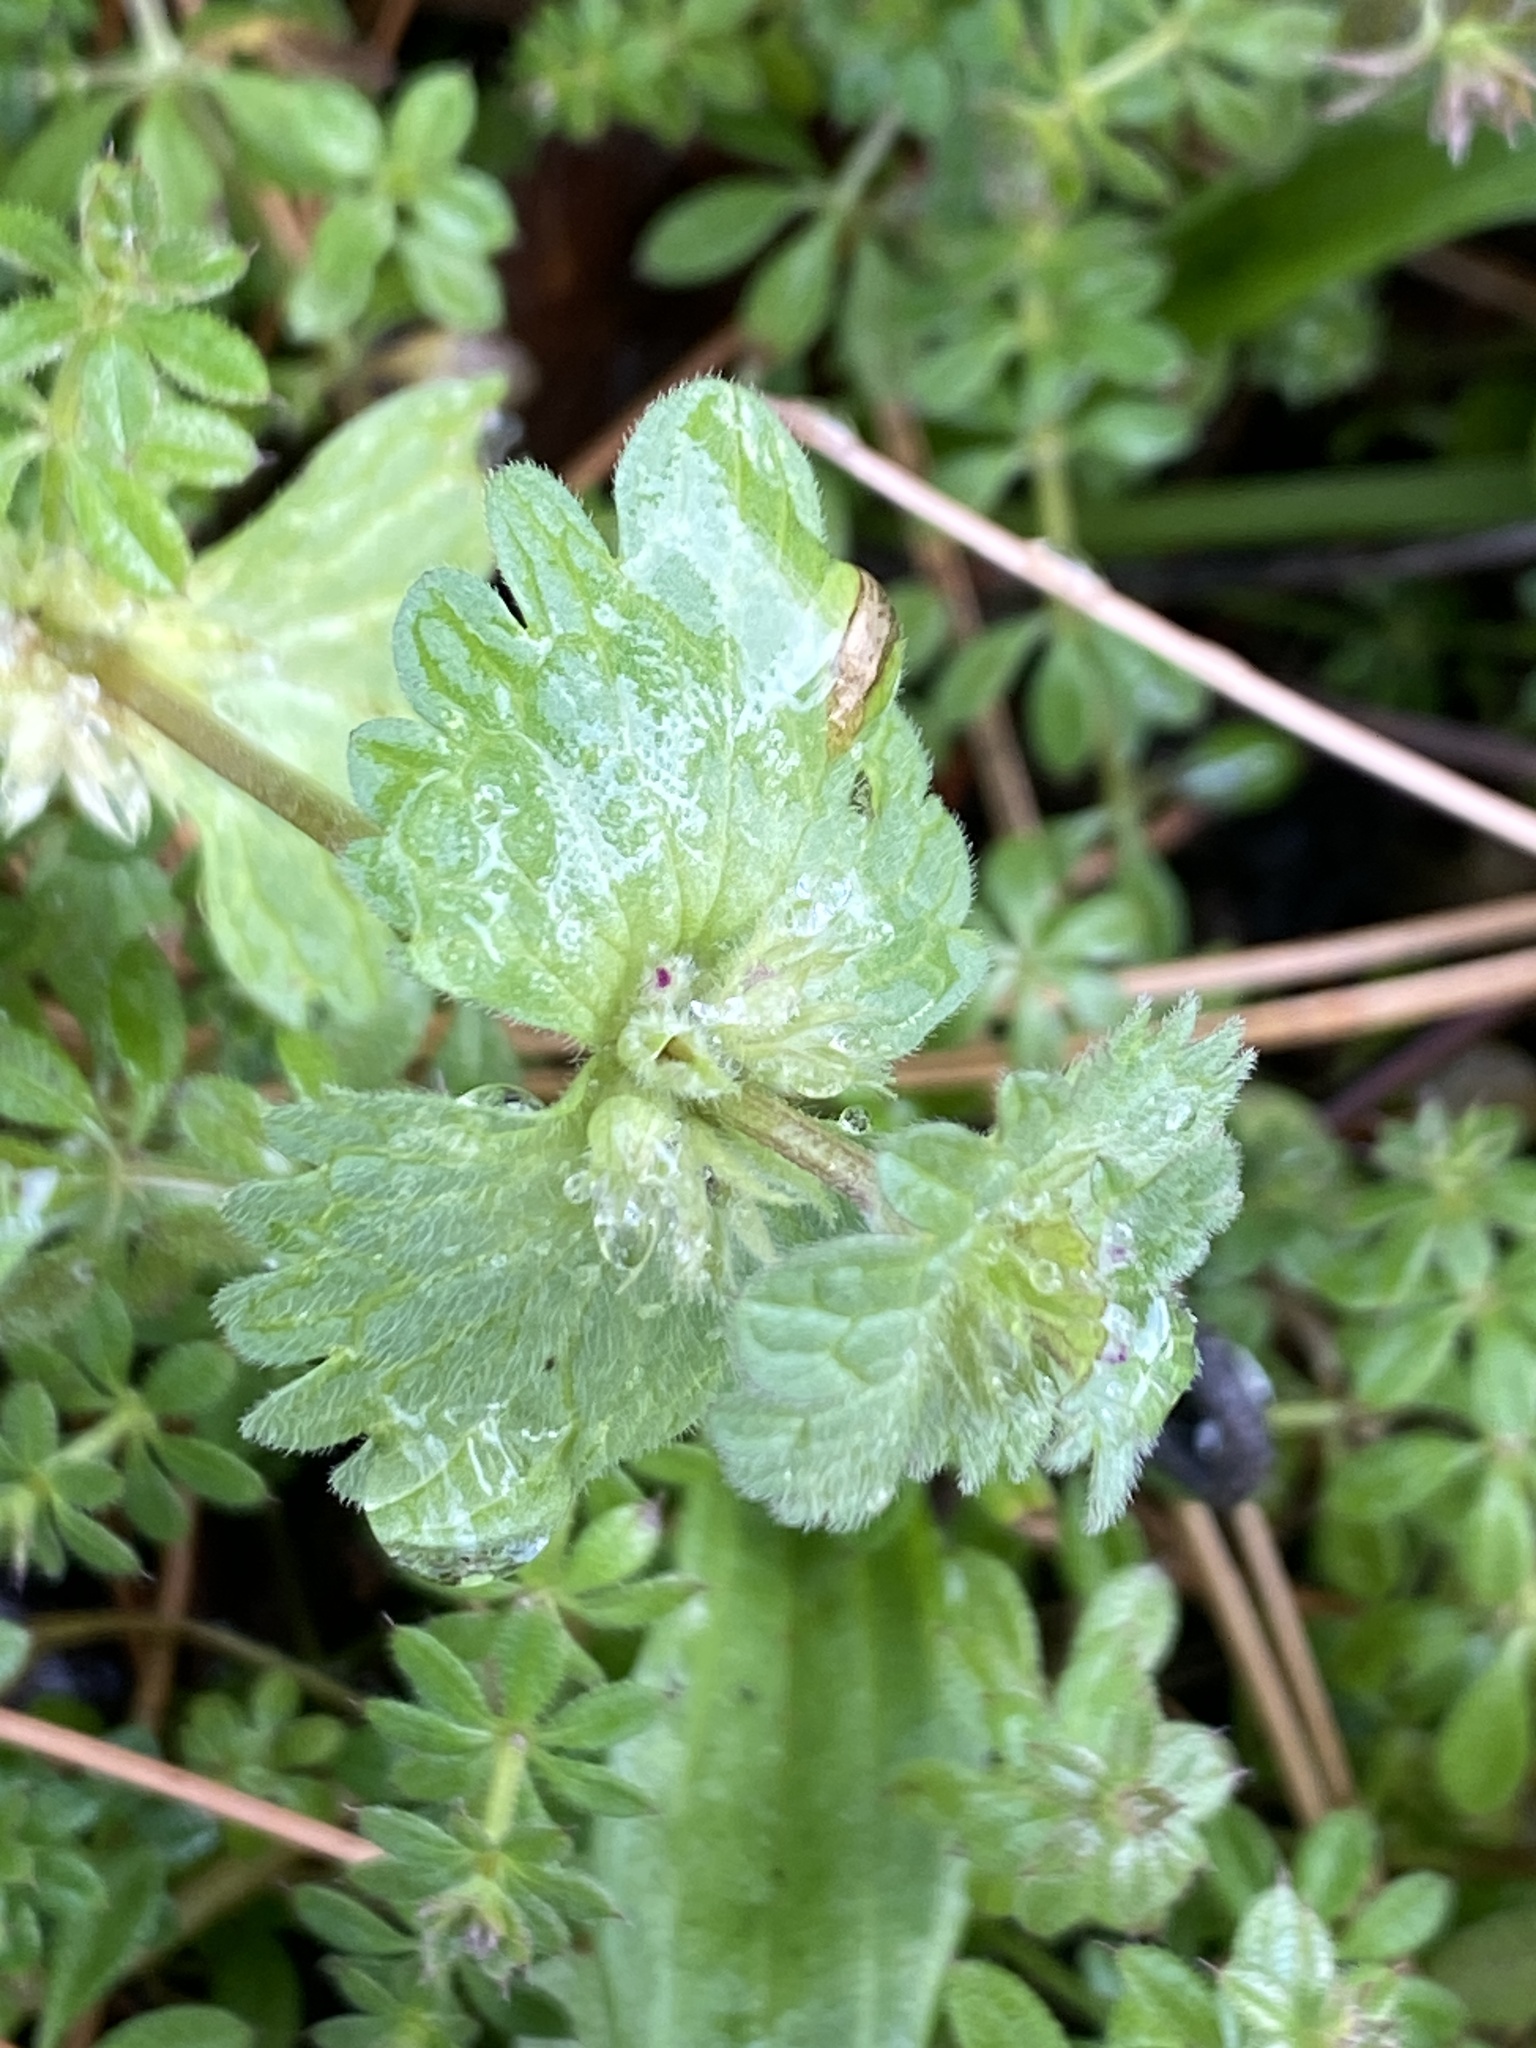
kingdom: Plantae
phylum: Tracheophyta
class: Magnoliopsida
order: Lamiales
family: Lamiaceae
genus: Lamium
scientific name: Lamium amplexicaule
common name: Henbit dead-nettle
